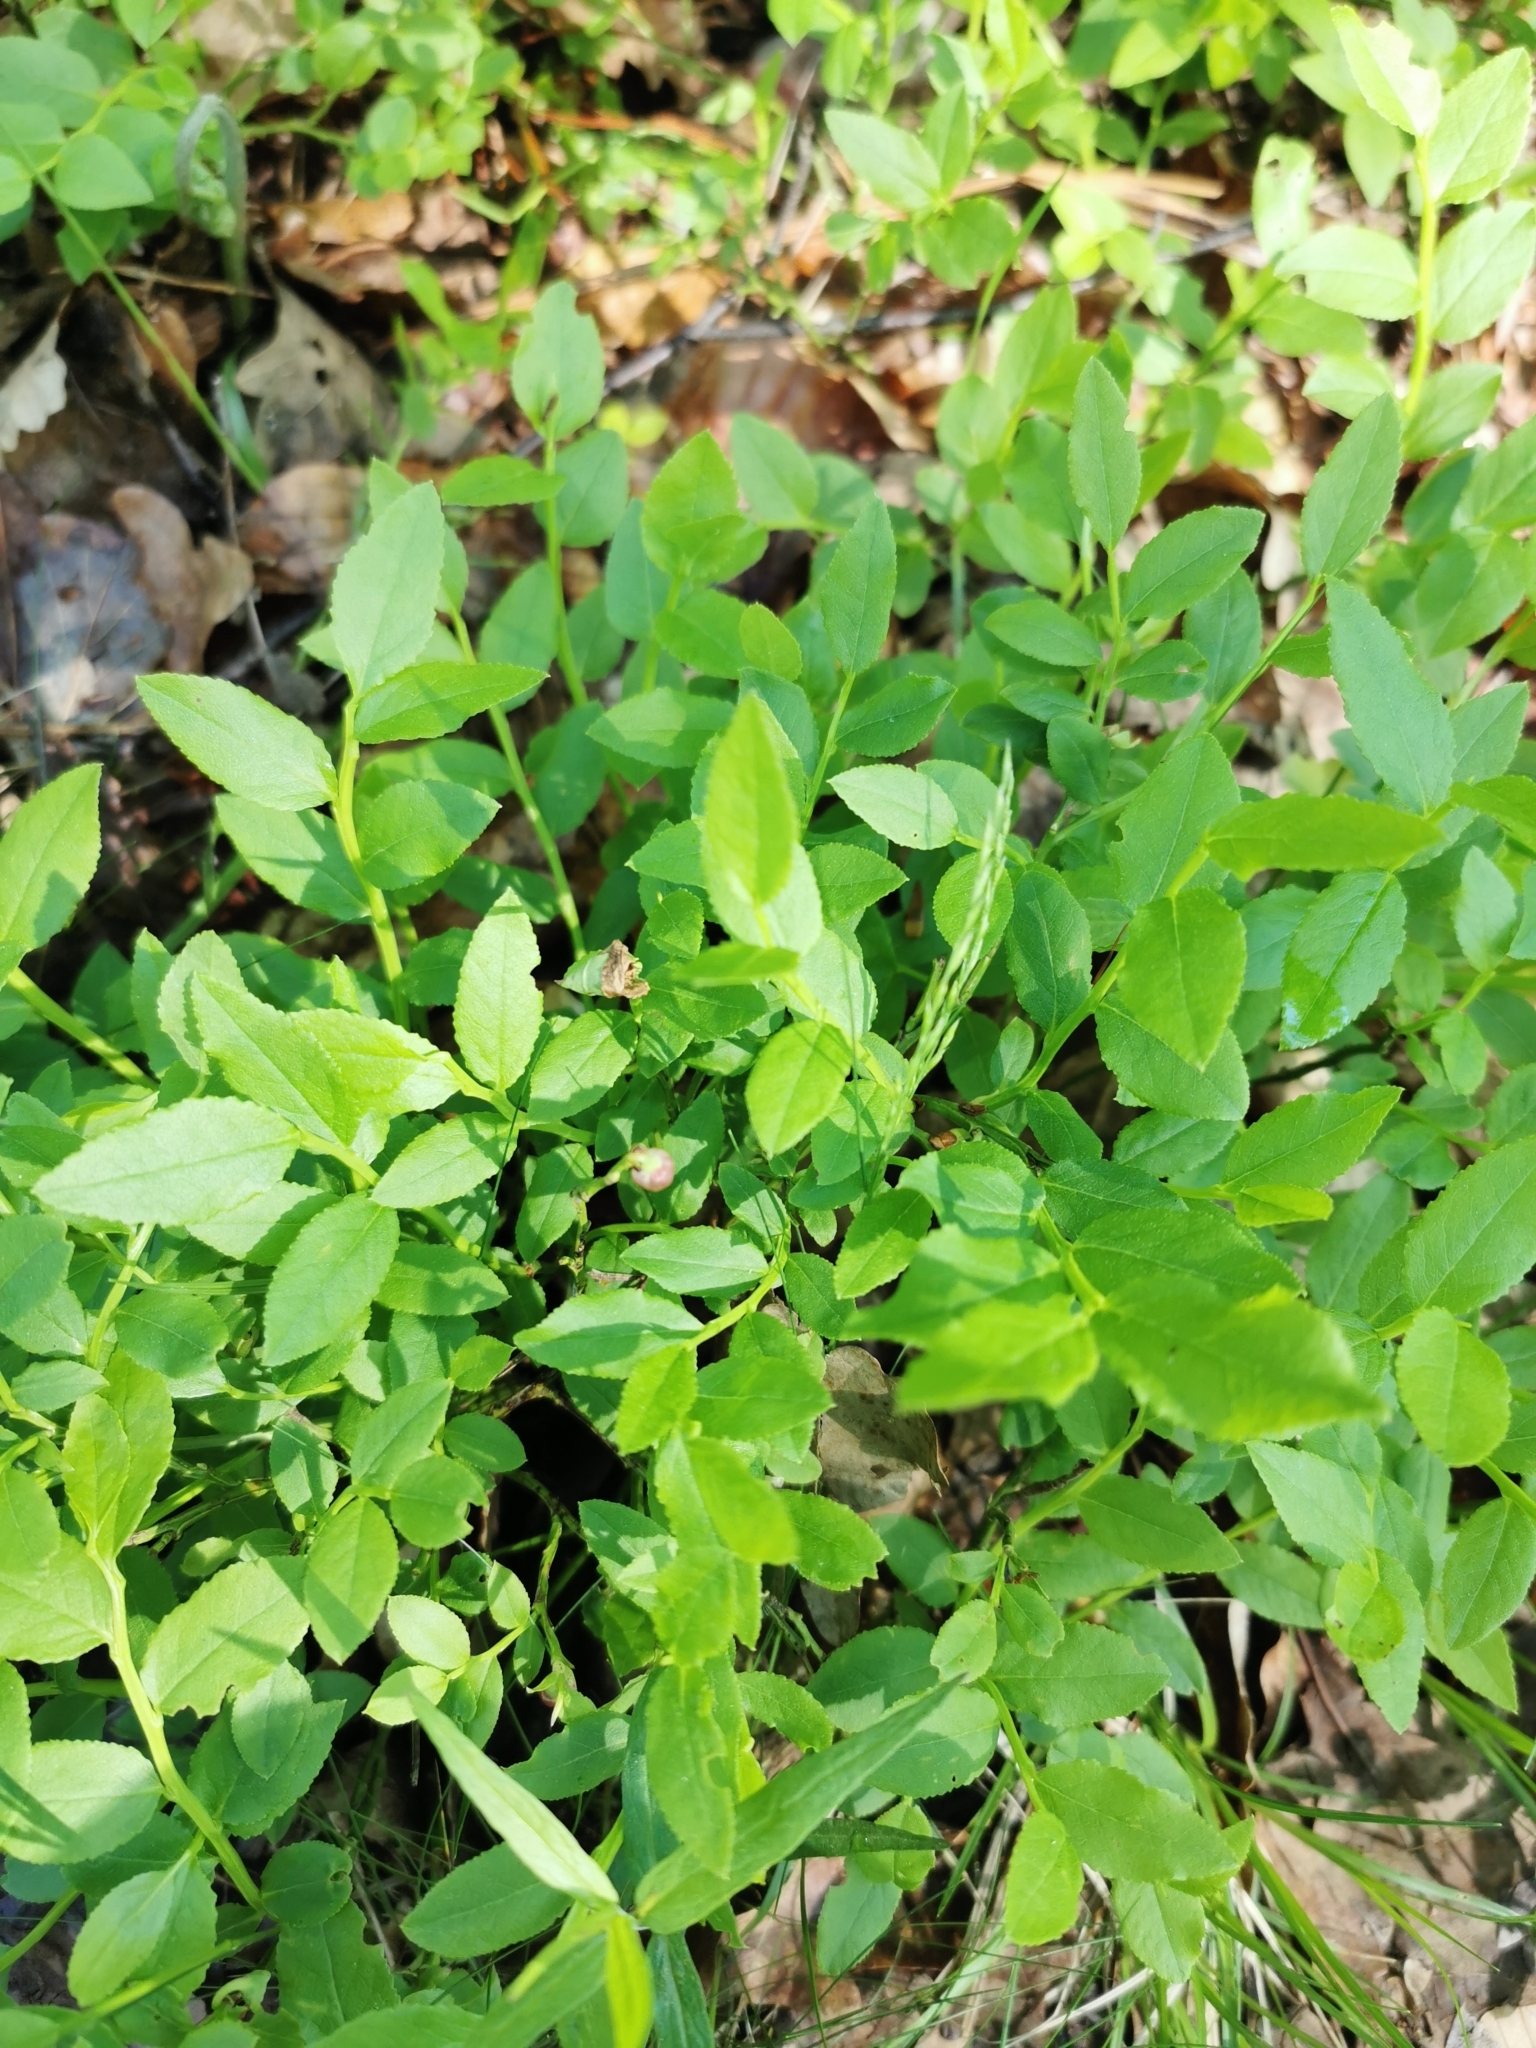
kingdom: Plantae
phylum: Tracheophyta
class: Magnoliopsida
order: Ericales
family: Ericaceae
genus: Vaccinium
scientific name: Vaccinium myrtillus
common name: Bilberry
